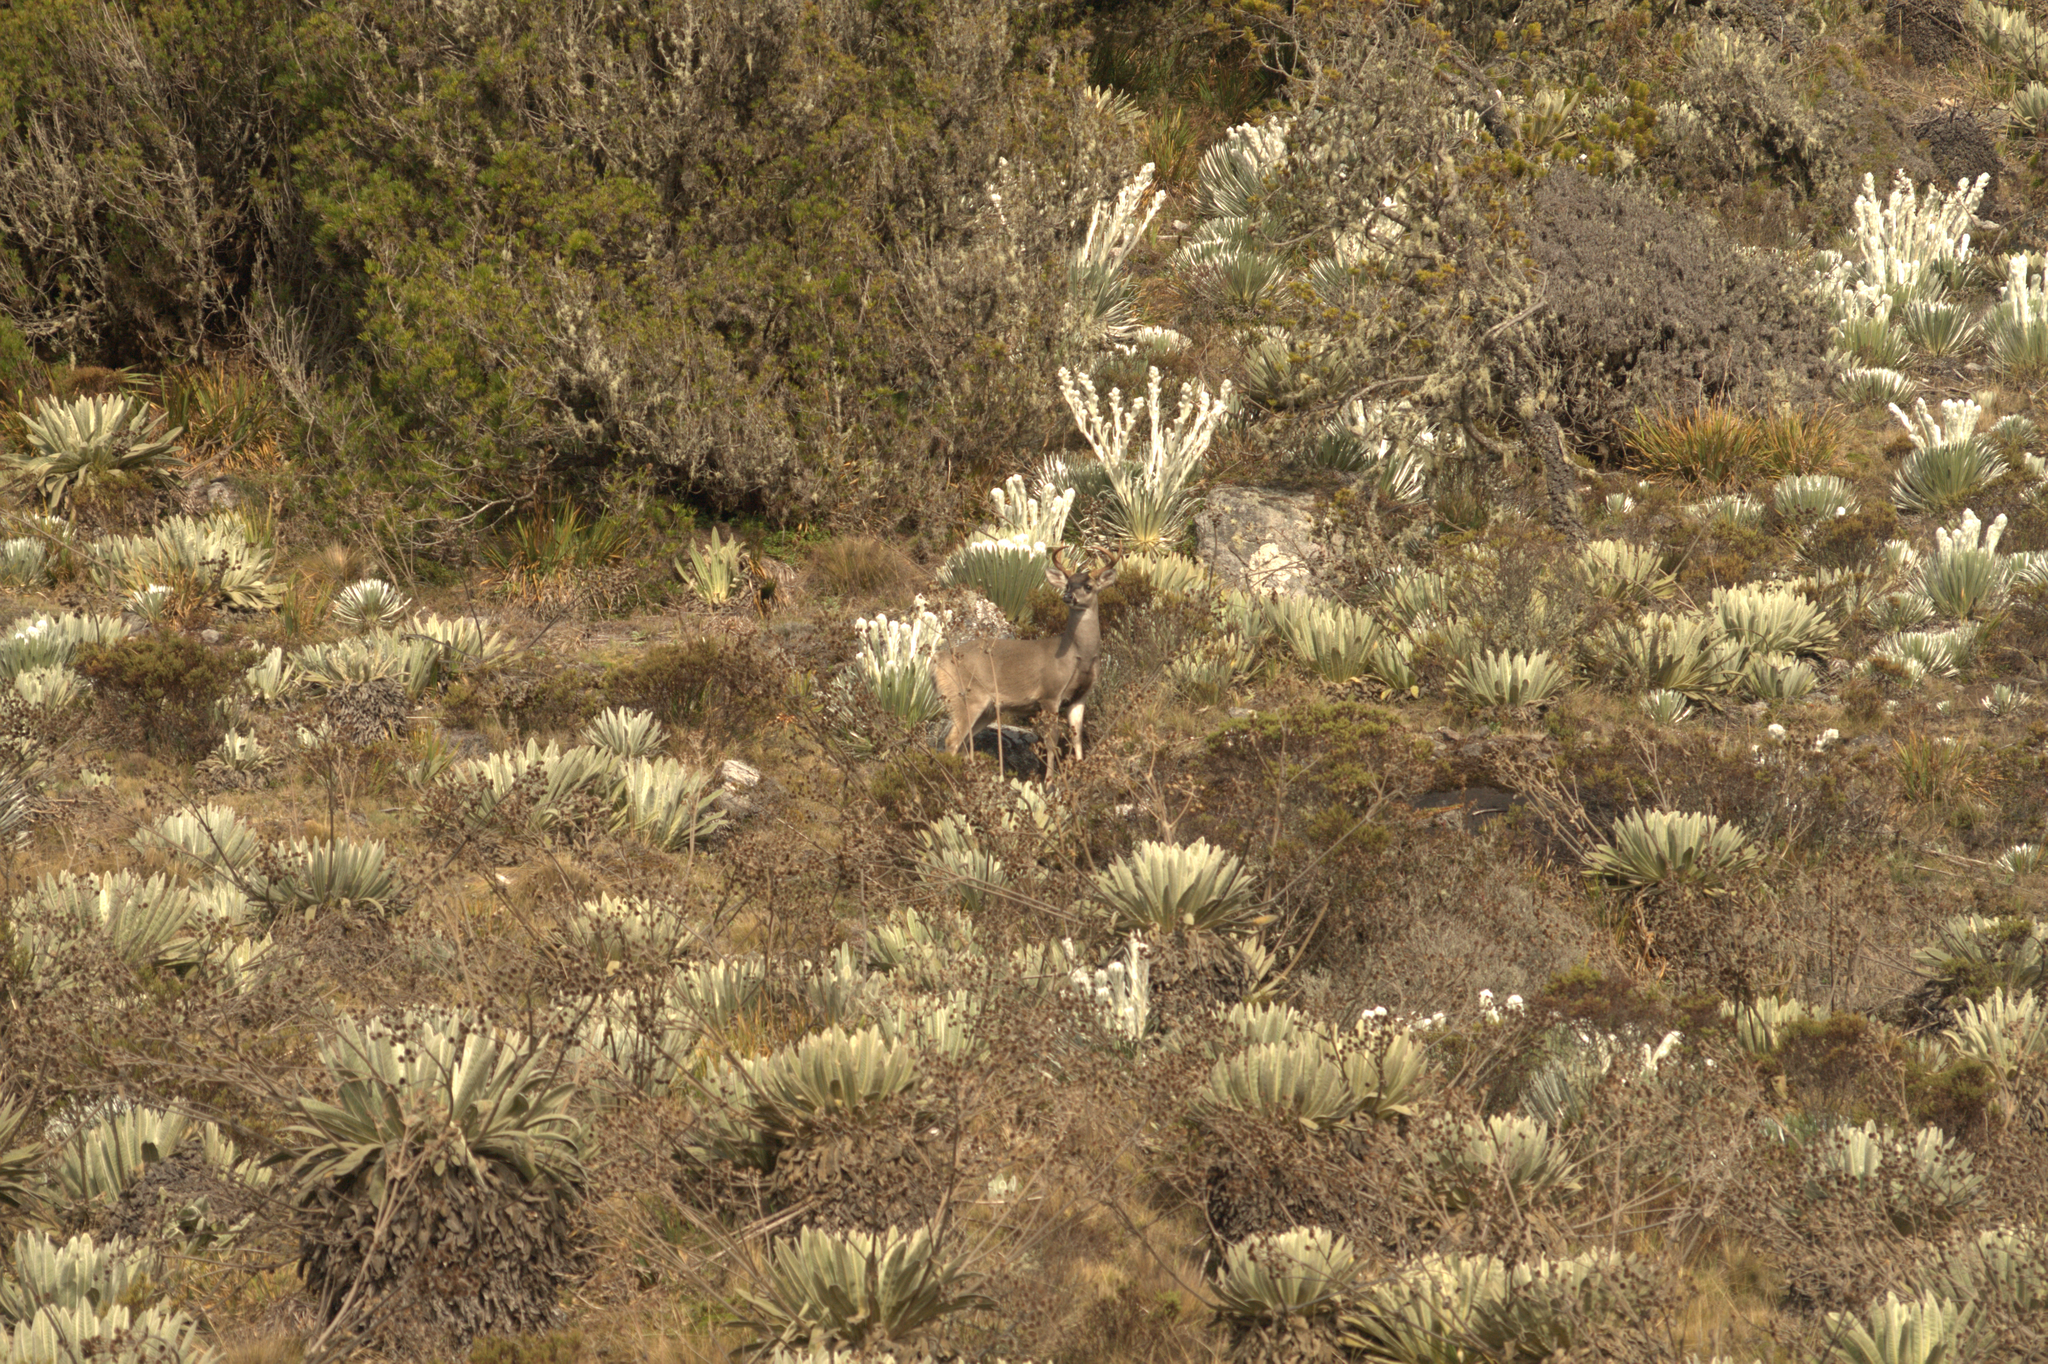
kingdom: Animalia
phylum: Chordata
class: Mammalia
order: Artiodactyla
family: Cervidae
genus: Odocoileus
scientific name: Odocoileus virginianus
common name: White-tailed deer
